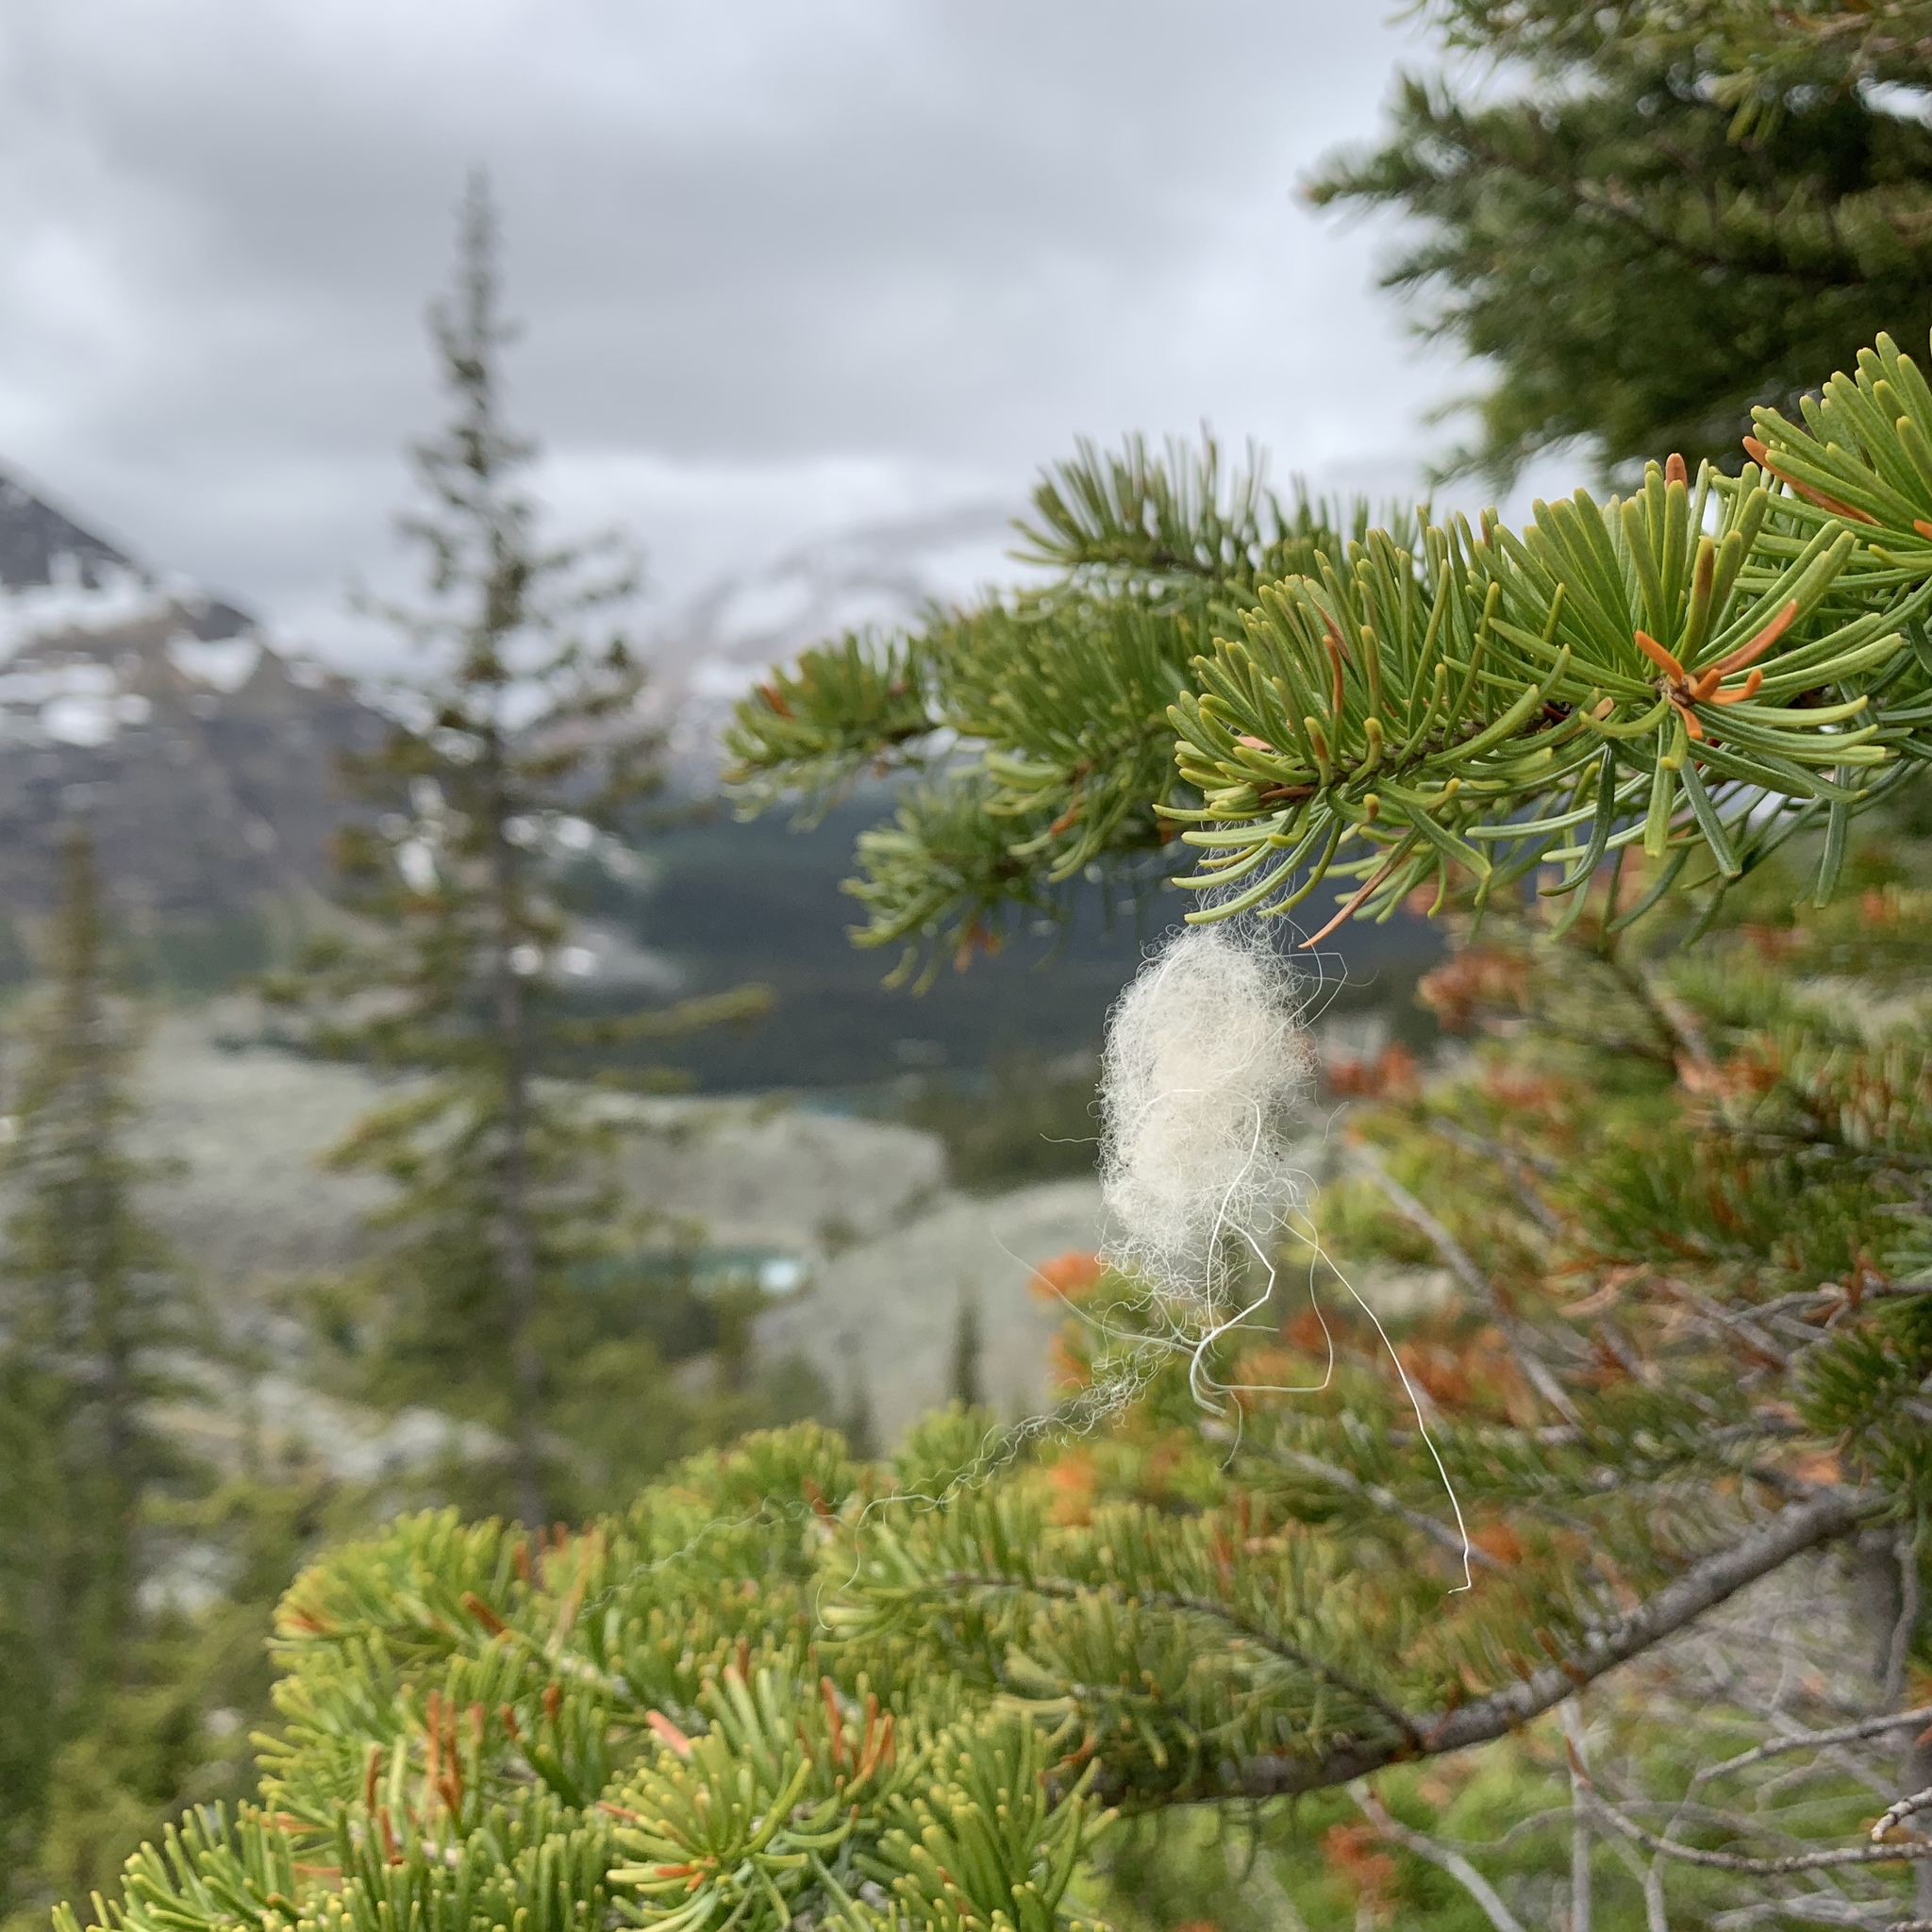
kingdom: Animalia
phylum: Chordata
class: Mammalia
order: Artiodactyla
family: Bovidae
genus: Oreamnos
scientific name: Oreamnos americanus
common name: Mountain goat
